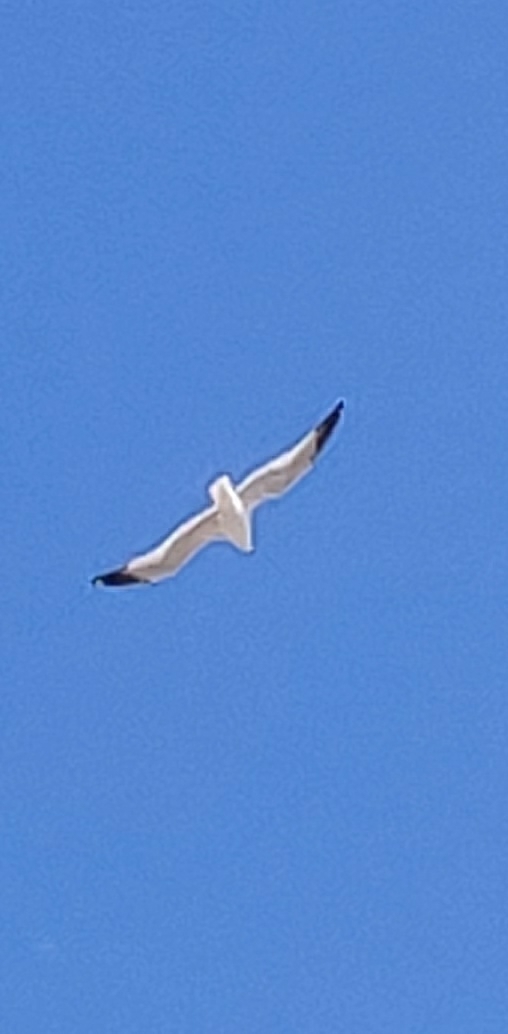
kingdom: Animalia
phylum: Chordata
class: Aves
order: Charadriiformes
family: Laridae
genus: Larus
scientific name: Larus delawarensis
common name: Ring-billed gull
